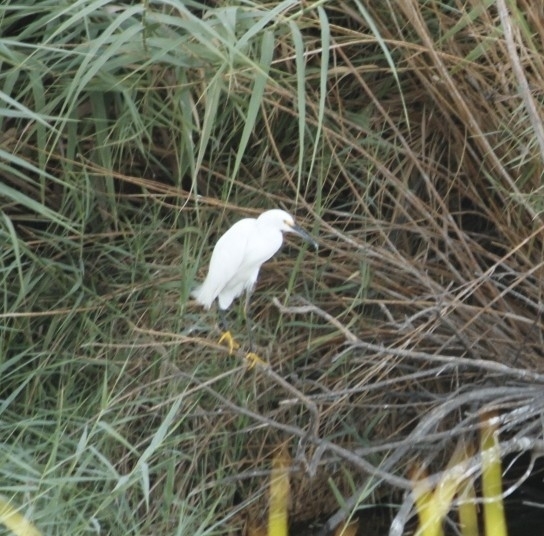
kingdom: Animalia
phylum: Chordata
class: Aves
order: Pelecaniformes
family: Ardeidae
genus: Egretta
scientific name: Egretta thula
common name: Snowy egret
